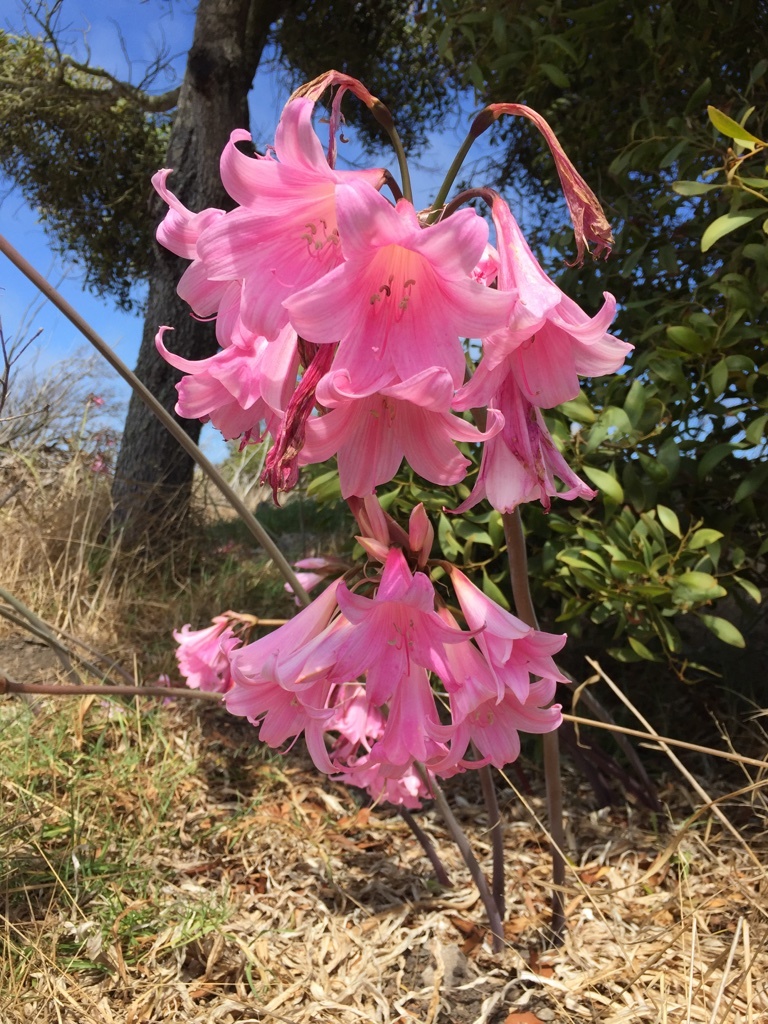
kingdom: Plantae
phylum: Tracheophyta
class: Liliopsida
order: Asparagales
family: Amaryllidaceae
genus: Amaryllis
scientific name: Amaryllis belladonna
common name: Jersey lily
